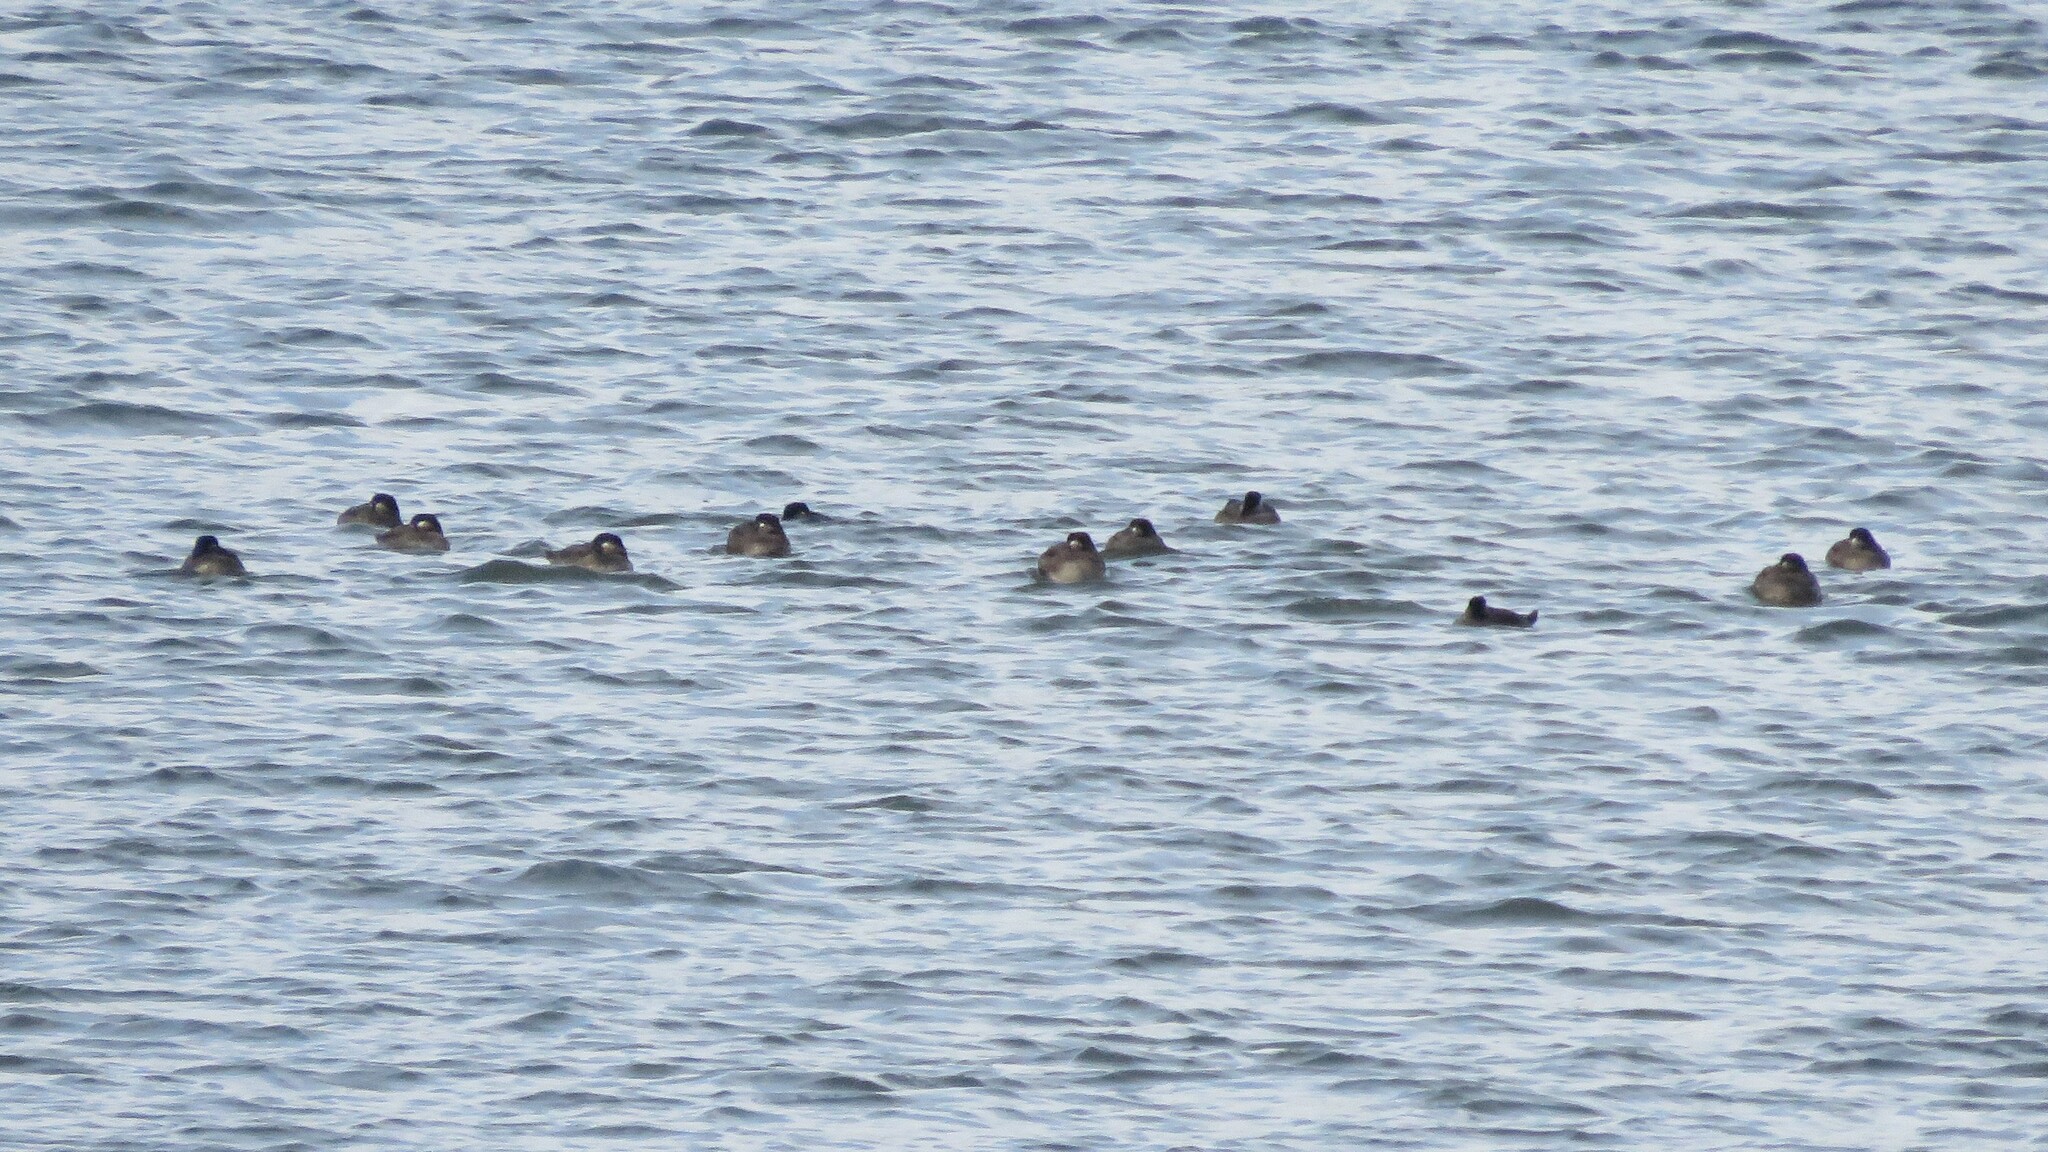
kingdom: Animalia
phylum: Chordata
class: Aves
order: Anseriformes
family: Anatidae
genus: Melanitta
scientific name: Melanitta perspicillata
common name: Surf scoter
